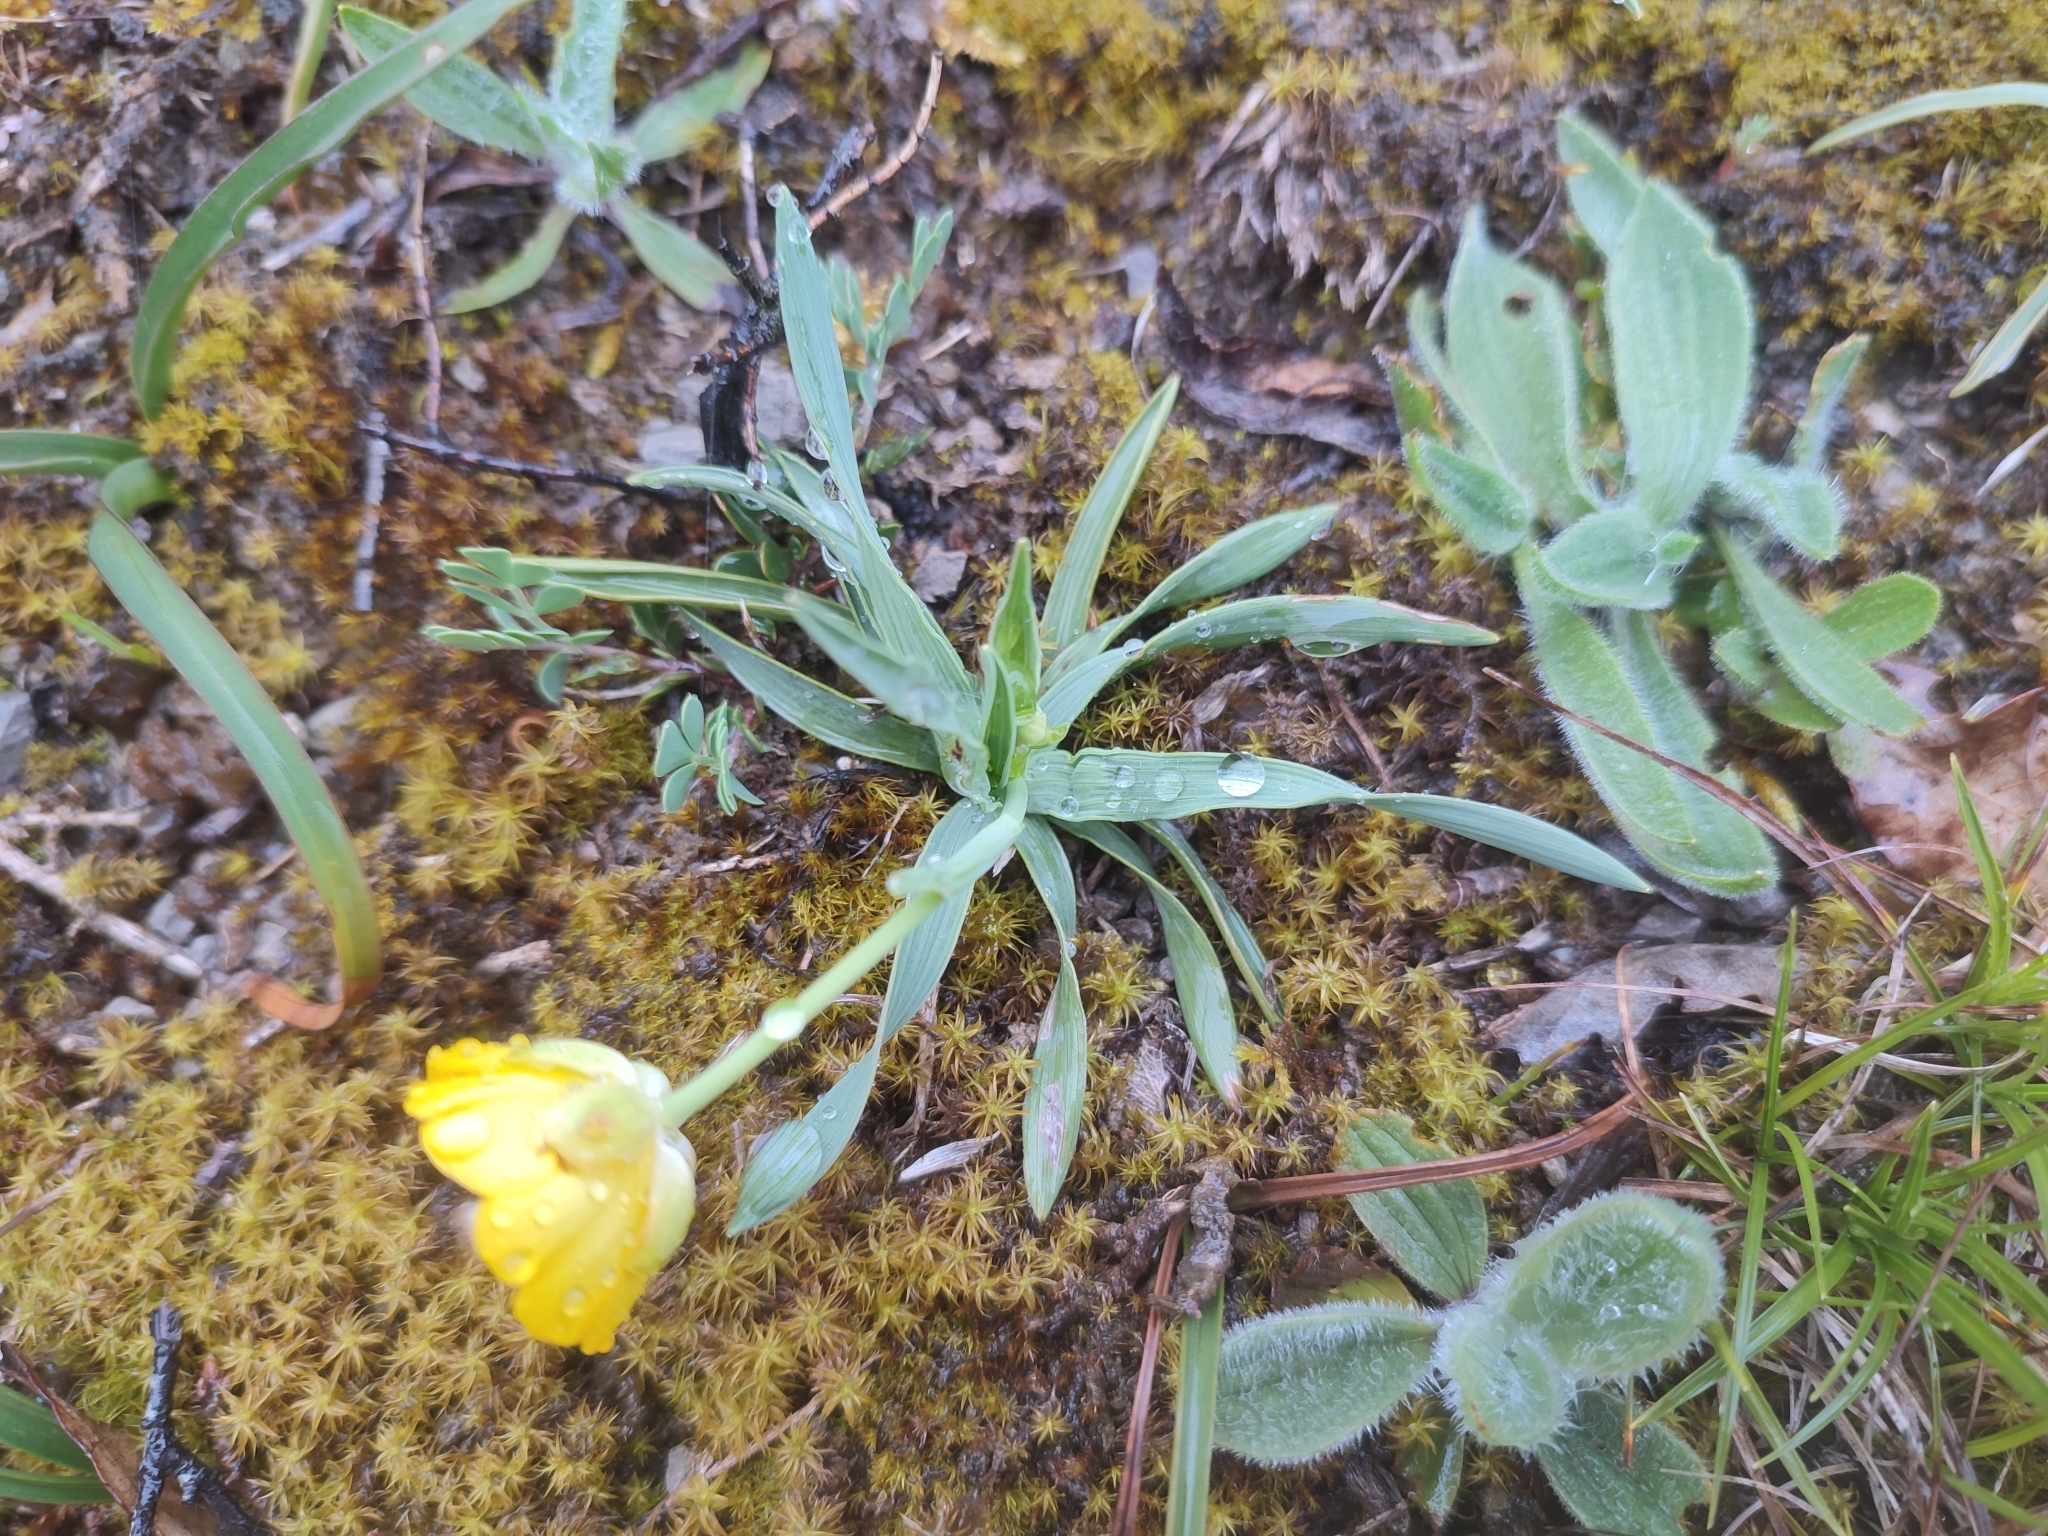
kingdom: Plantae
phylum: Tracheophyta
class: Magnoliopsida
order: Ranunculales
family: Ranunculaceae
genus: Ranunculus
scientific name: Ranunculus gramineus
